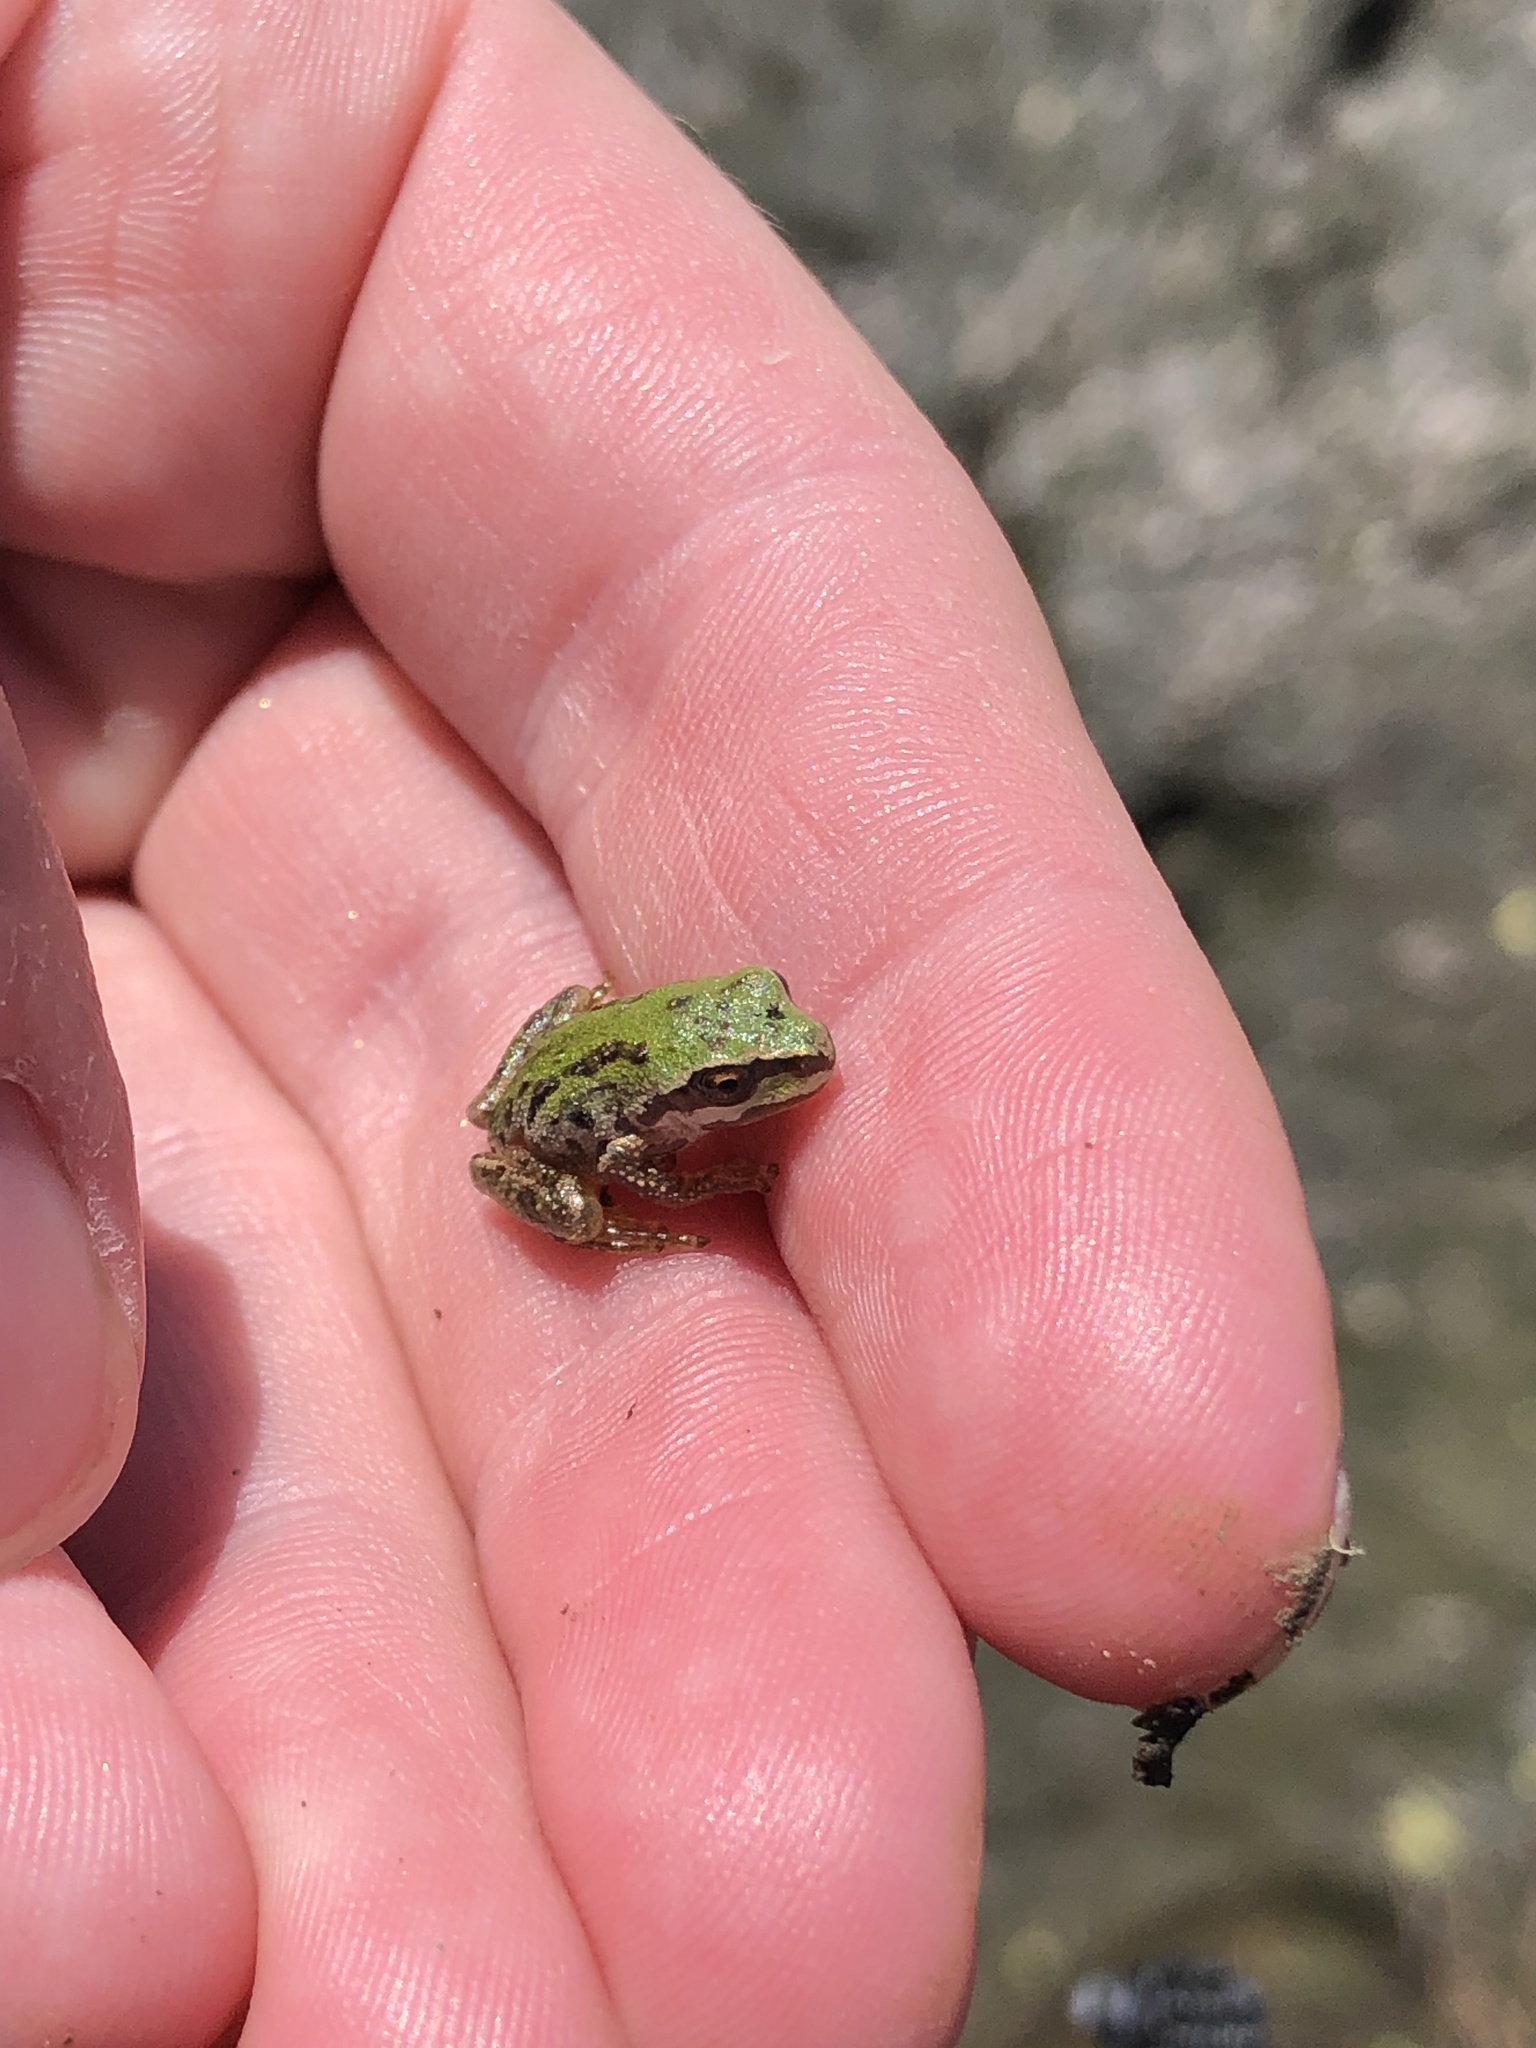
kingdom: Animalia
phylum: Chordata
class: Amphibia
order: Anura
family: Hylidae
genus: Pseudacris
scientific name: Pseudacris regilla
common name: Pacific chorus frog
